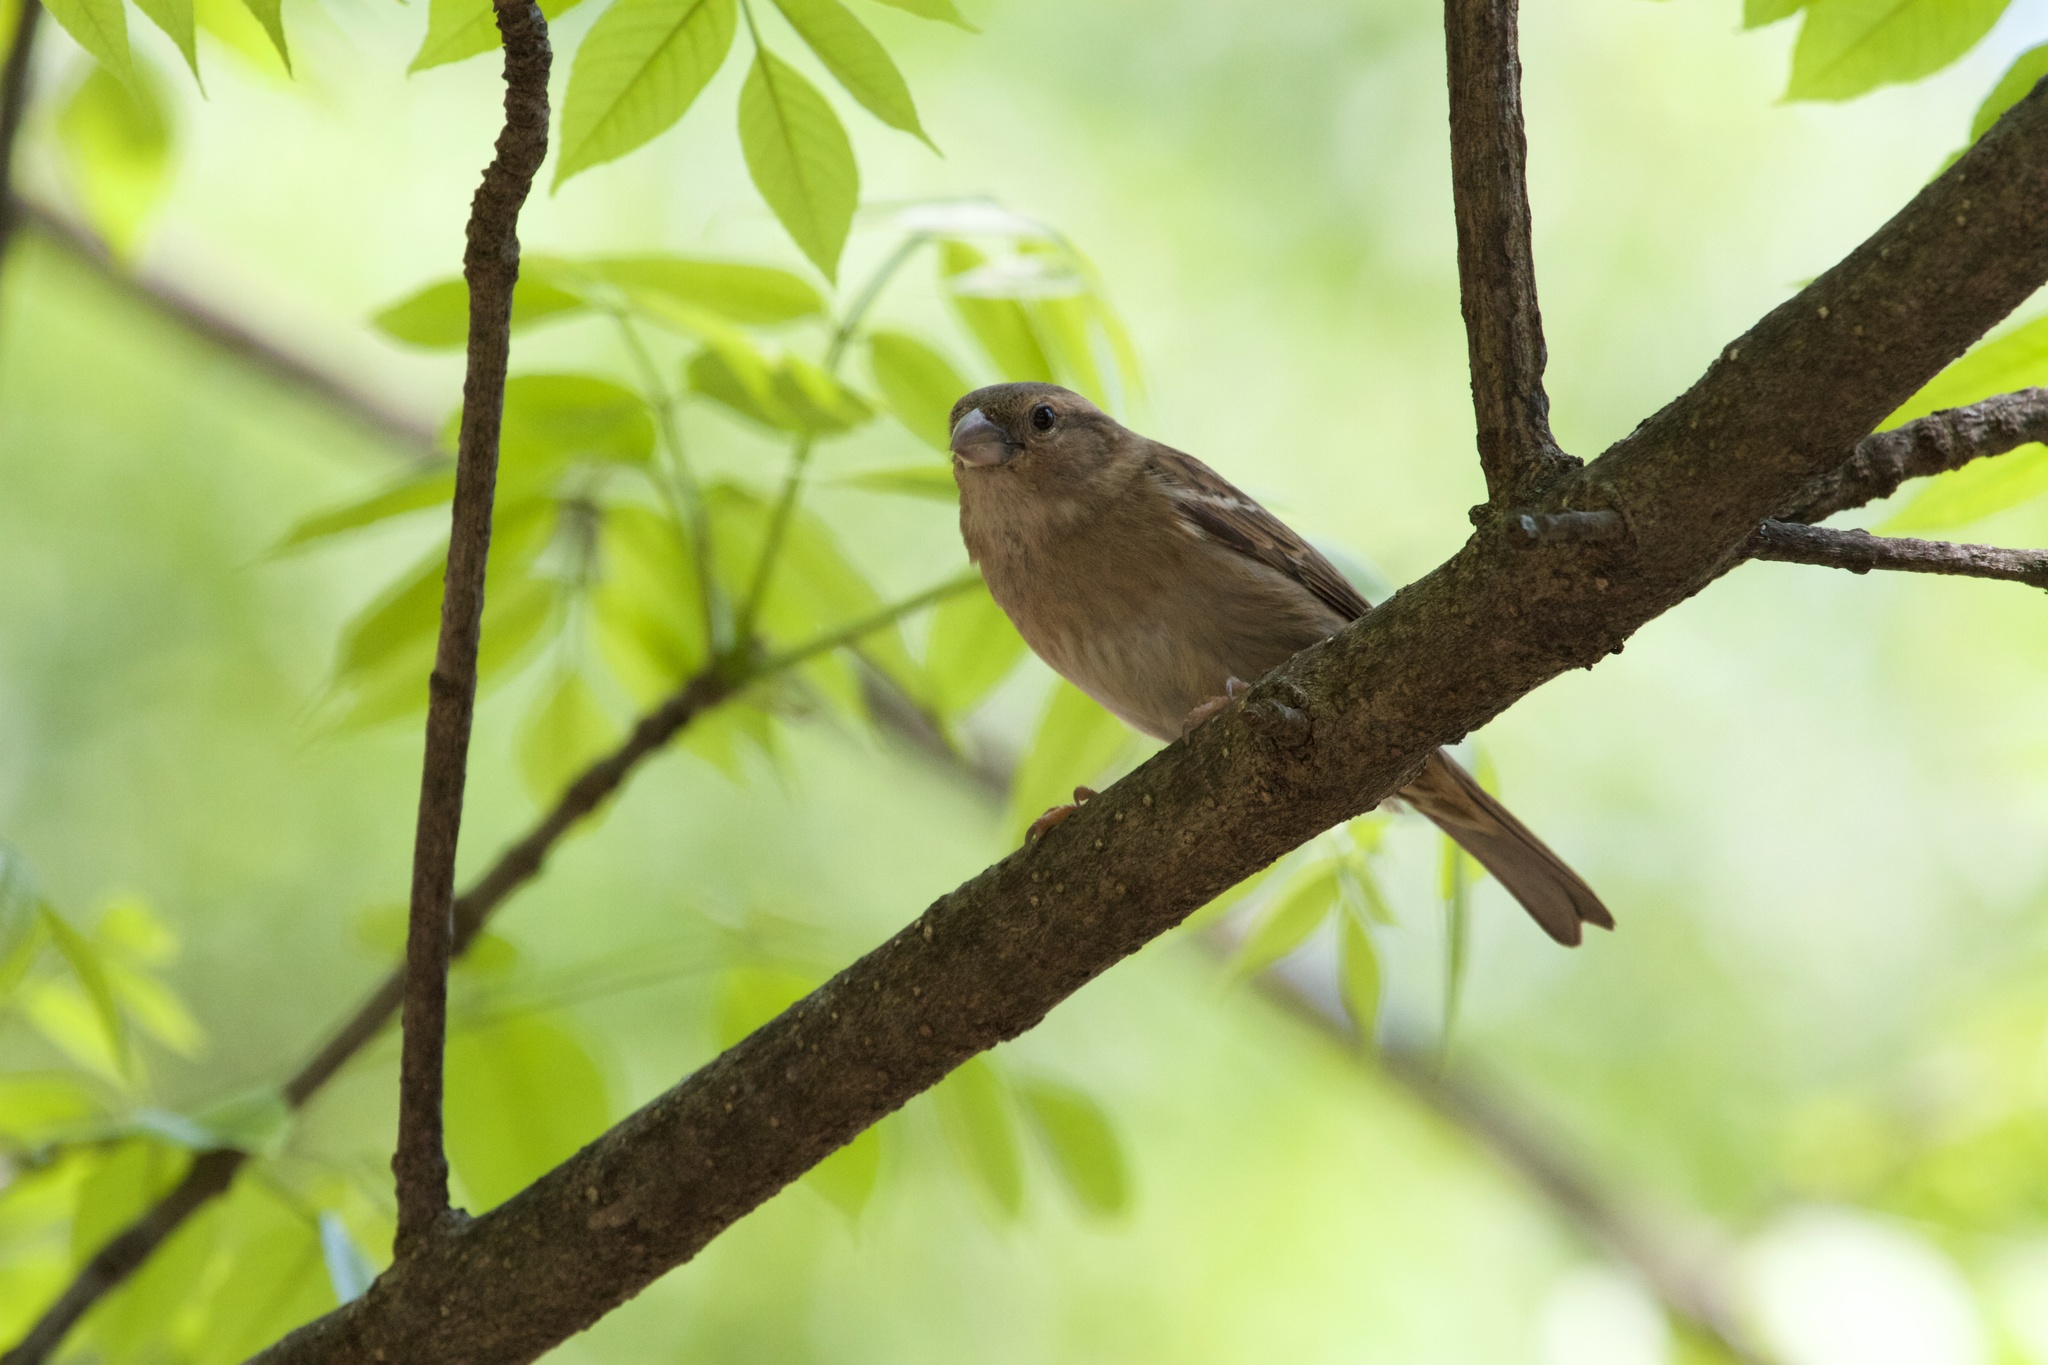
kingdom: Animalia
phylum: Chordata
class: Aves
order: Passeriformes
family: Passeridae
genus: Passer
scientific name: Passer domesticus
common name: House sparrow
